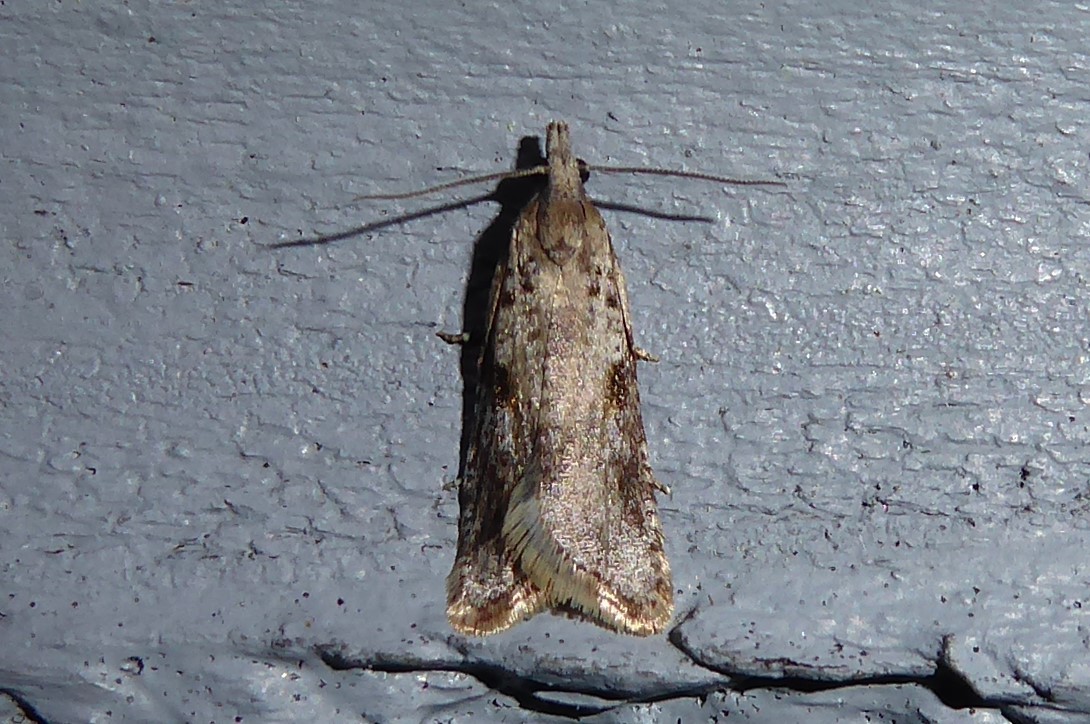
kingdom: Animalia
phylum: Arthropoda
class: Insecta
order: Lepidoptera
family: Tortricidae
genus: Capua
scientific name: Capua semiferana
